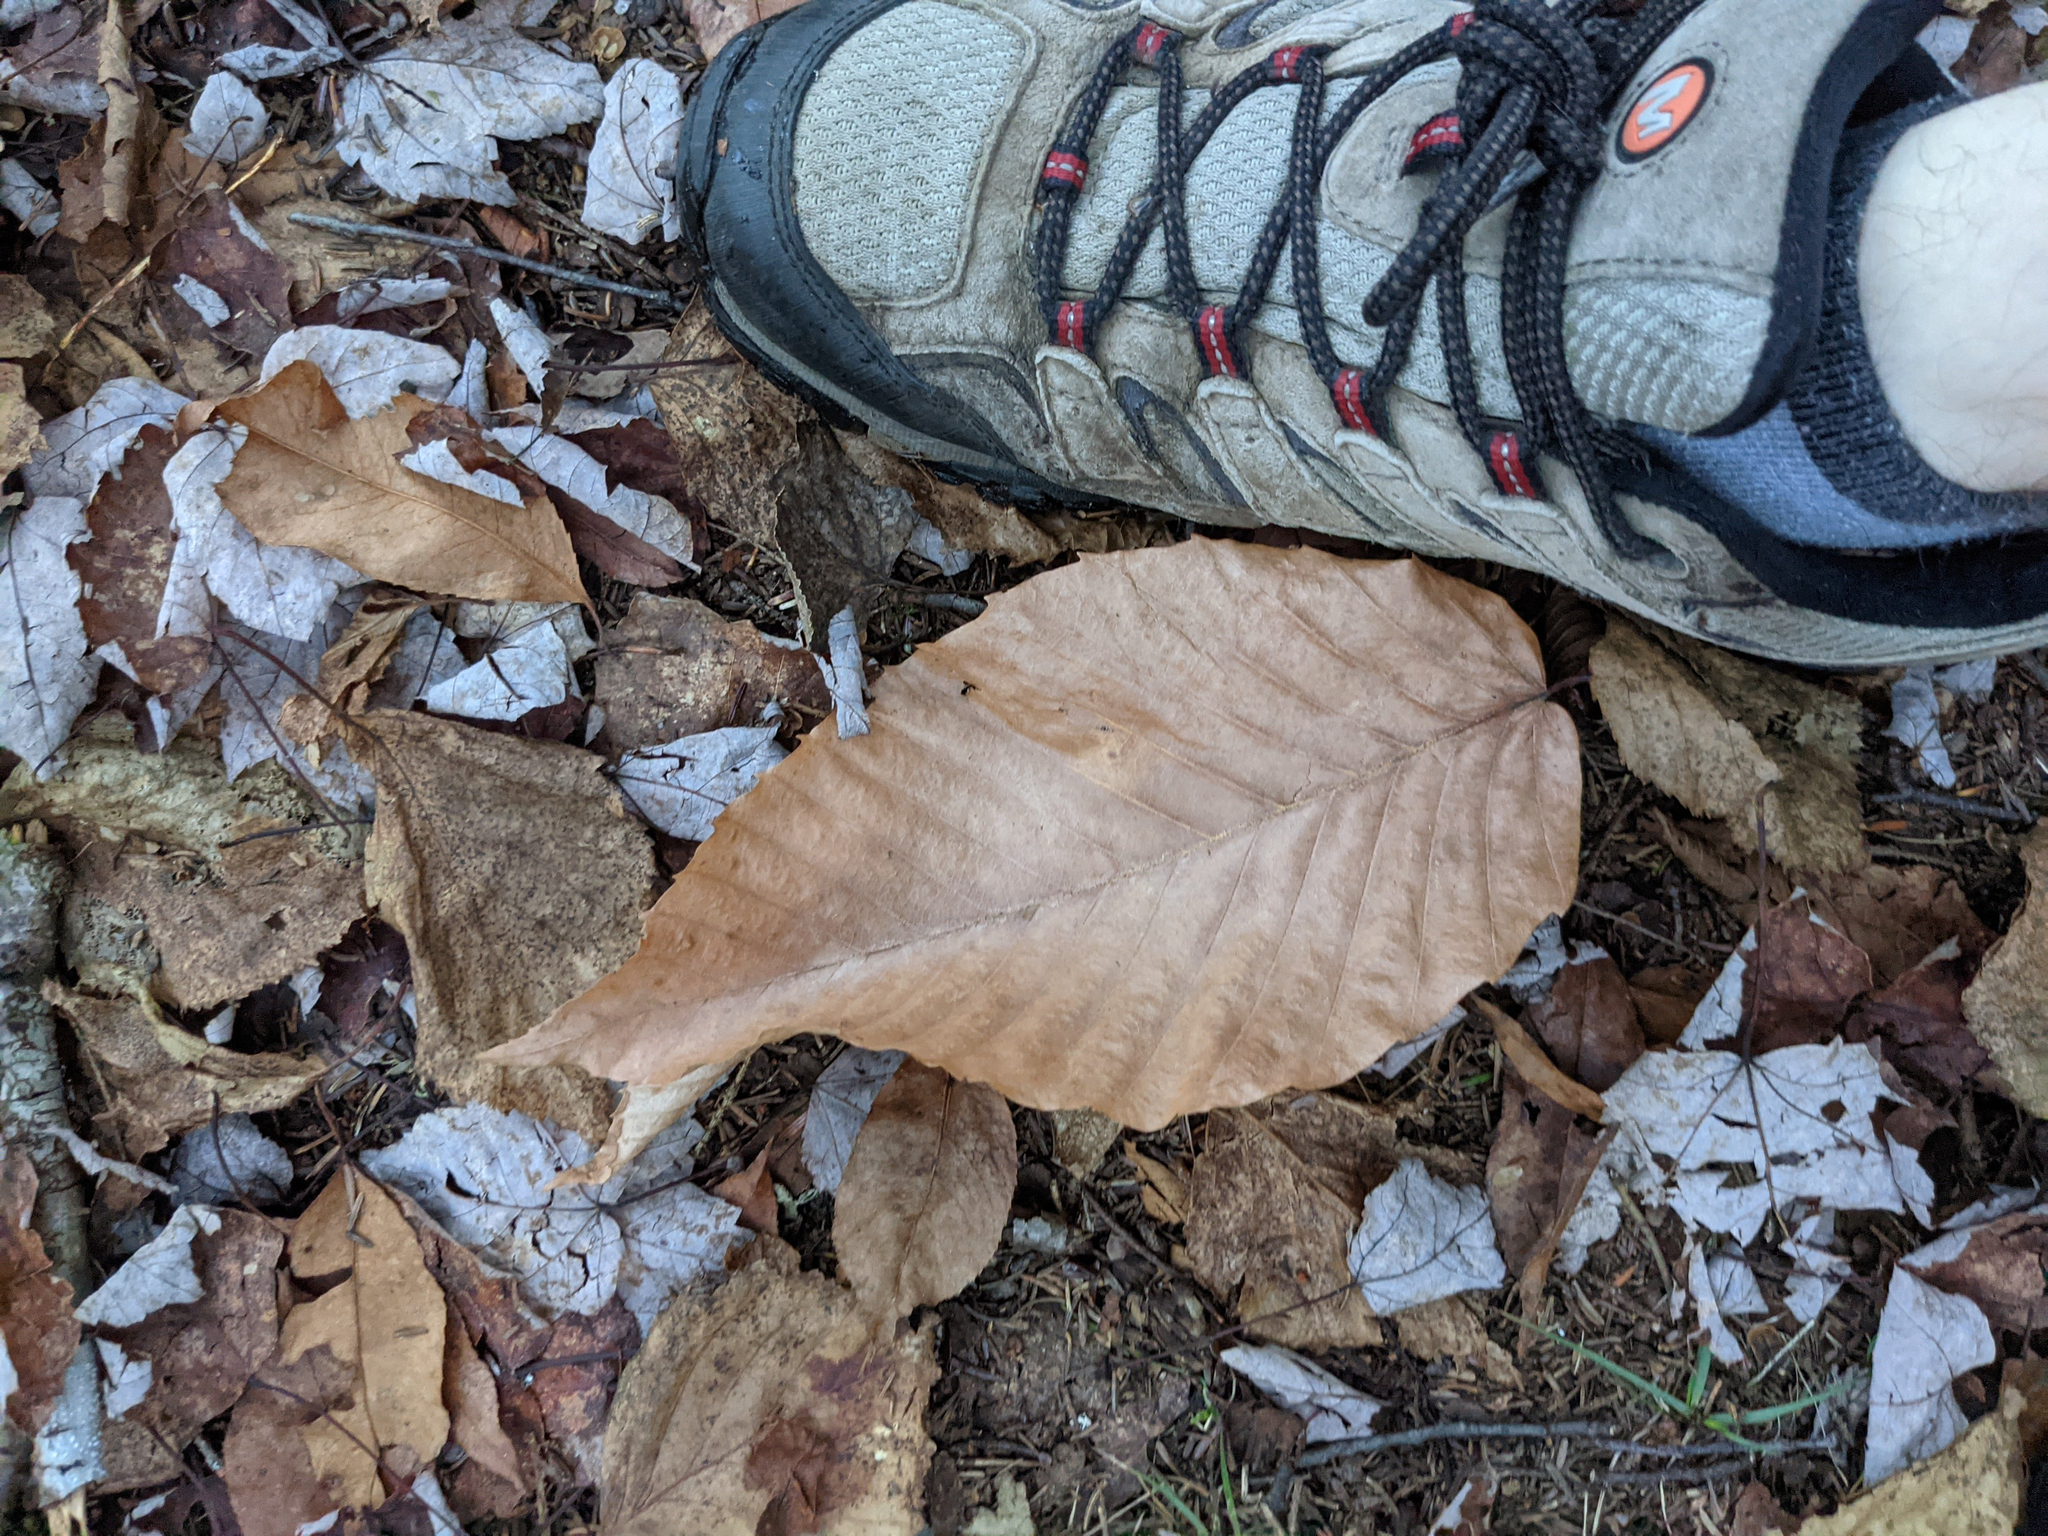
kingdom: Plantae
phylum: Tracheophyta
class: Magnoliopsida
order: Fagales
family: Fagaceae
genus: Fagus
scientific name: Fagus grandifolia
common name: American beech
